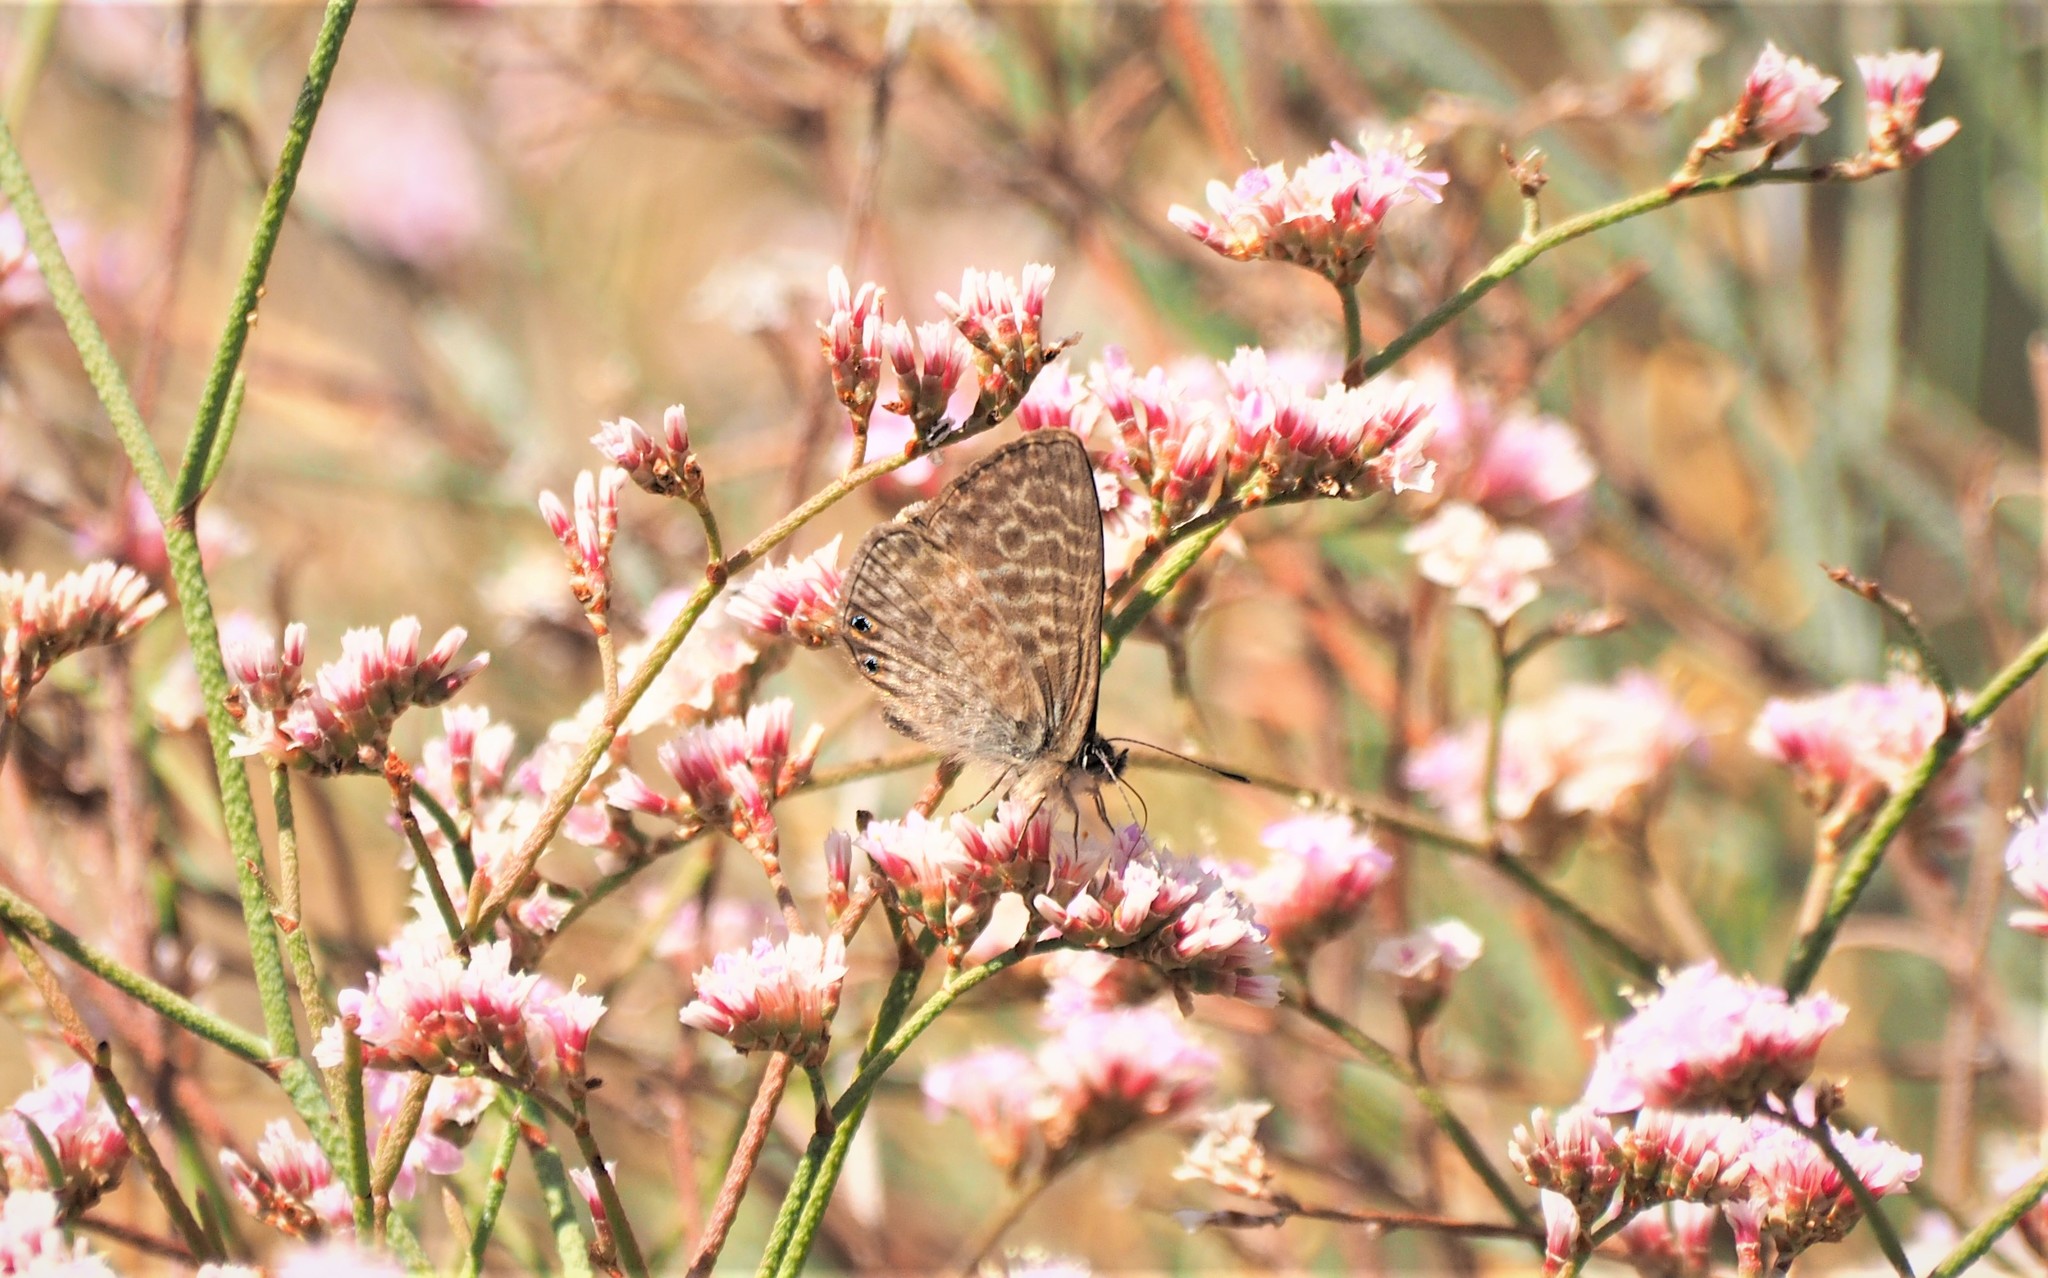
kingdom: Animalia
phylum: Arthropoda
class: Insecta
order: Lepidoptera
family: Lycaenidae
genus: Leptotes
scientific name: Leptotes pirithous
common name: Lang's short-tailed blue
